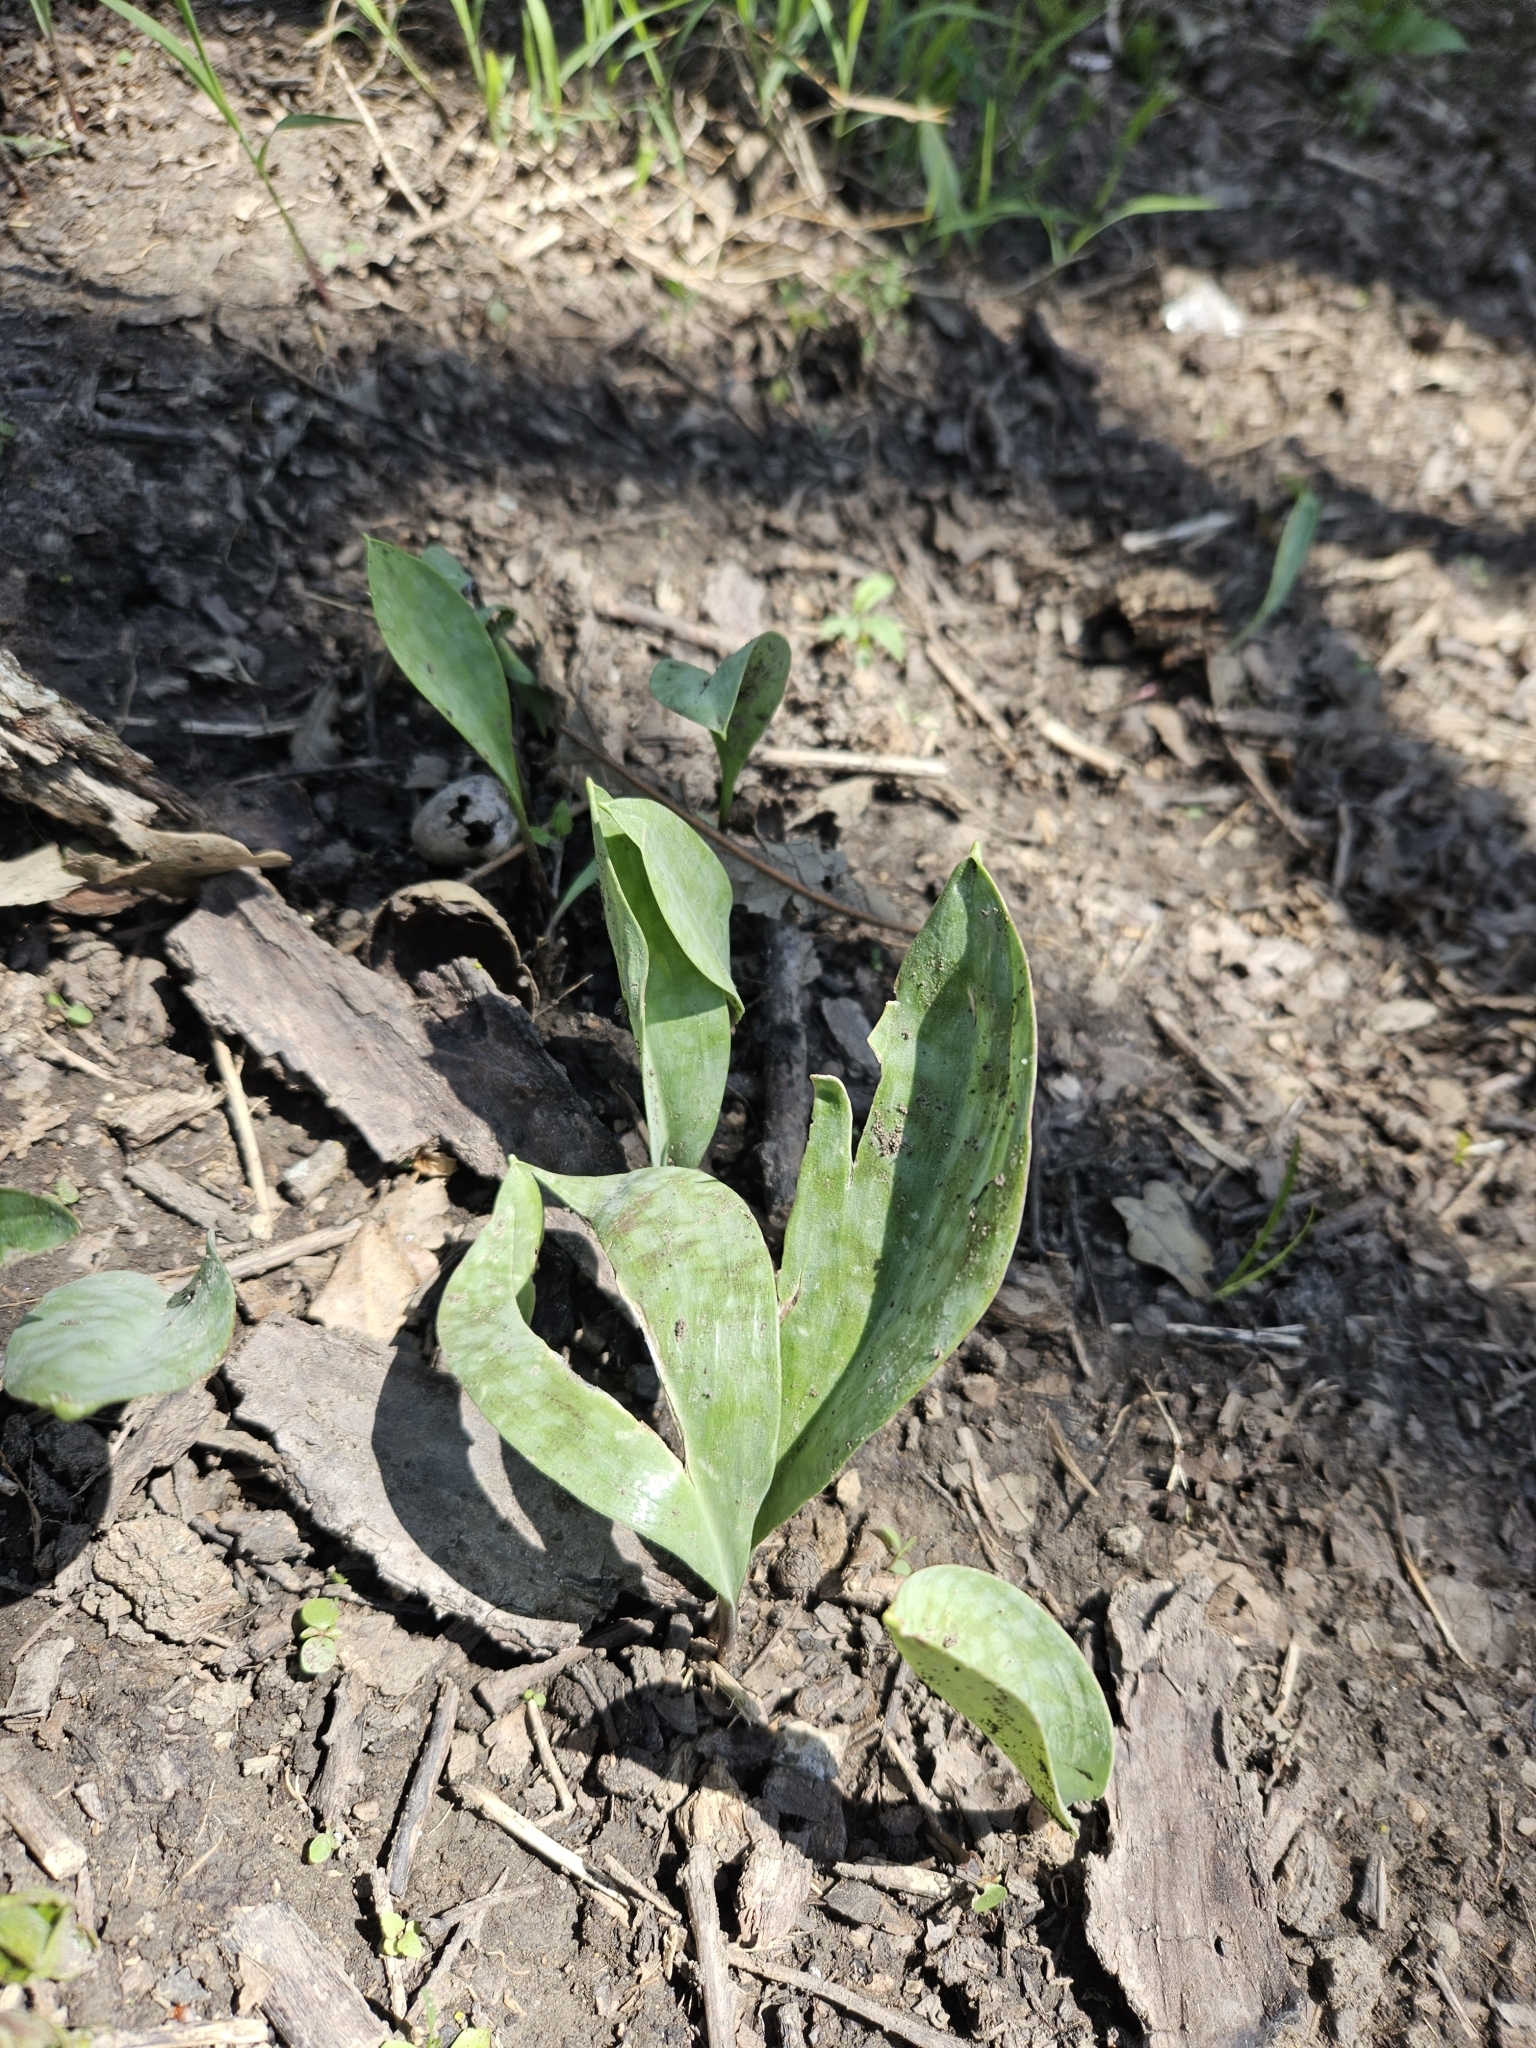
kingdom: Plantae
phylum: Tracheophyta
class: Liliopsida
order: Liliales
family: Liliaceae
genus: Erythronium
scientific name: Erythronium albidum
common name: White trout-lily
